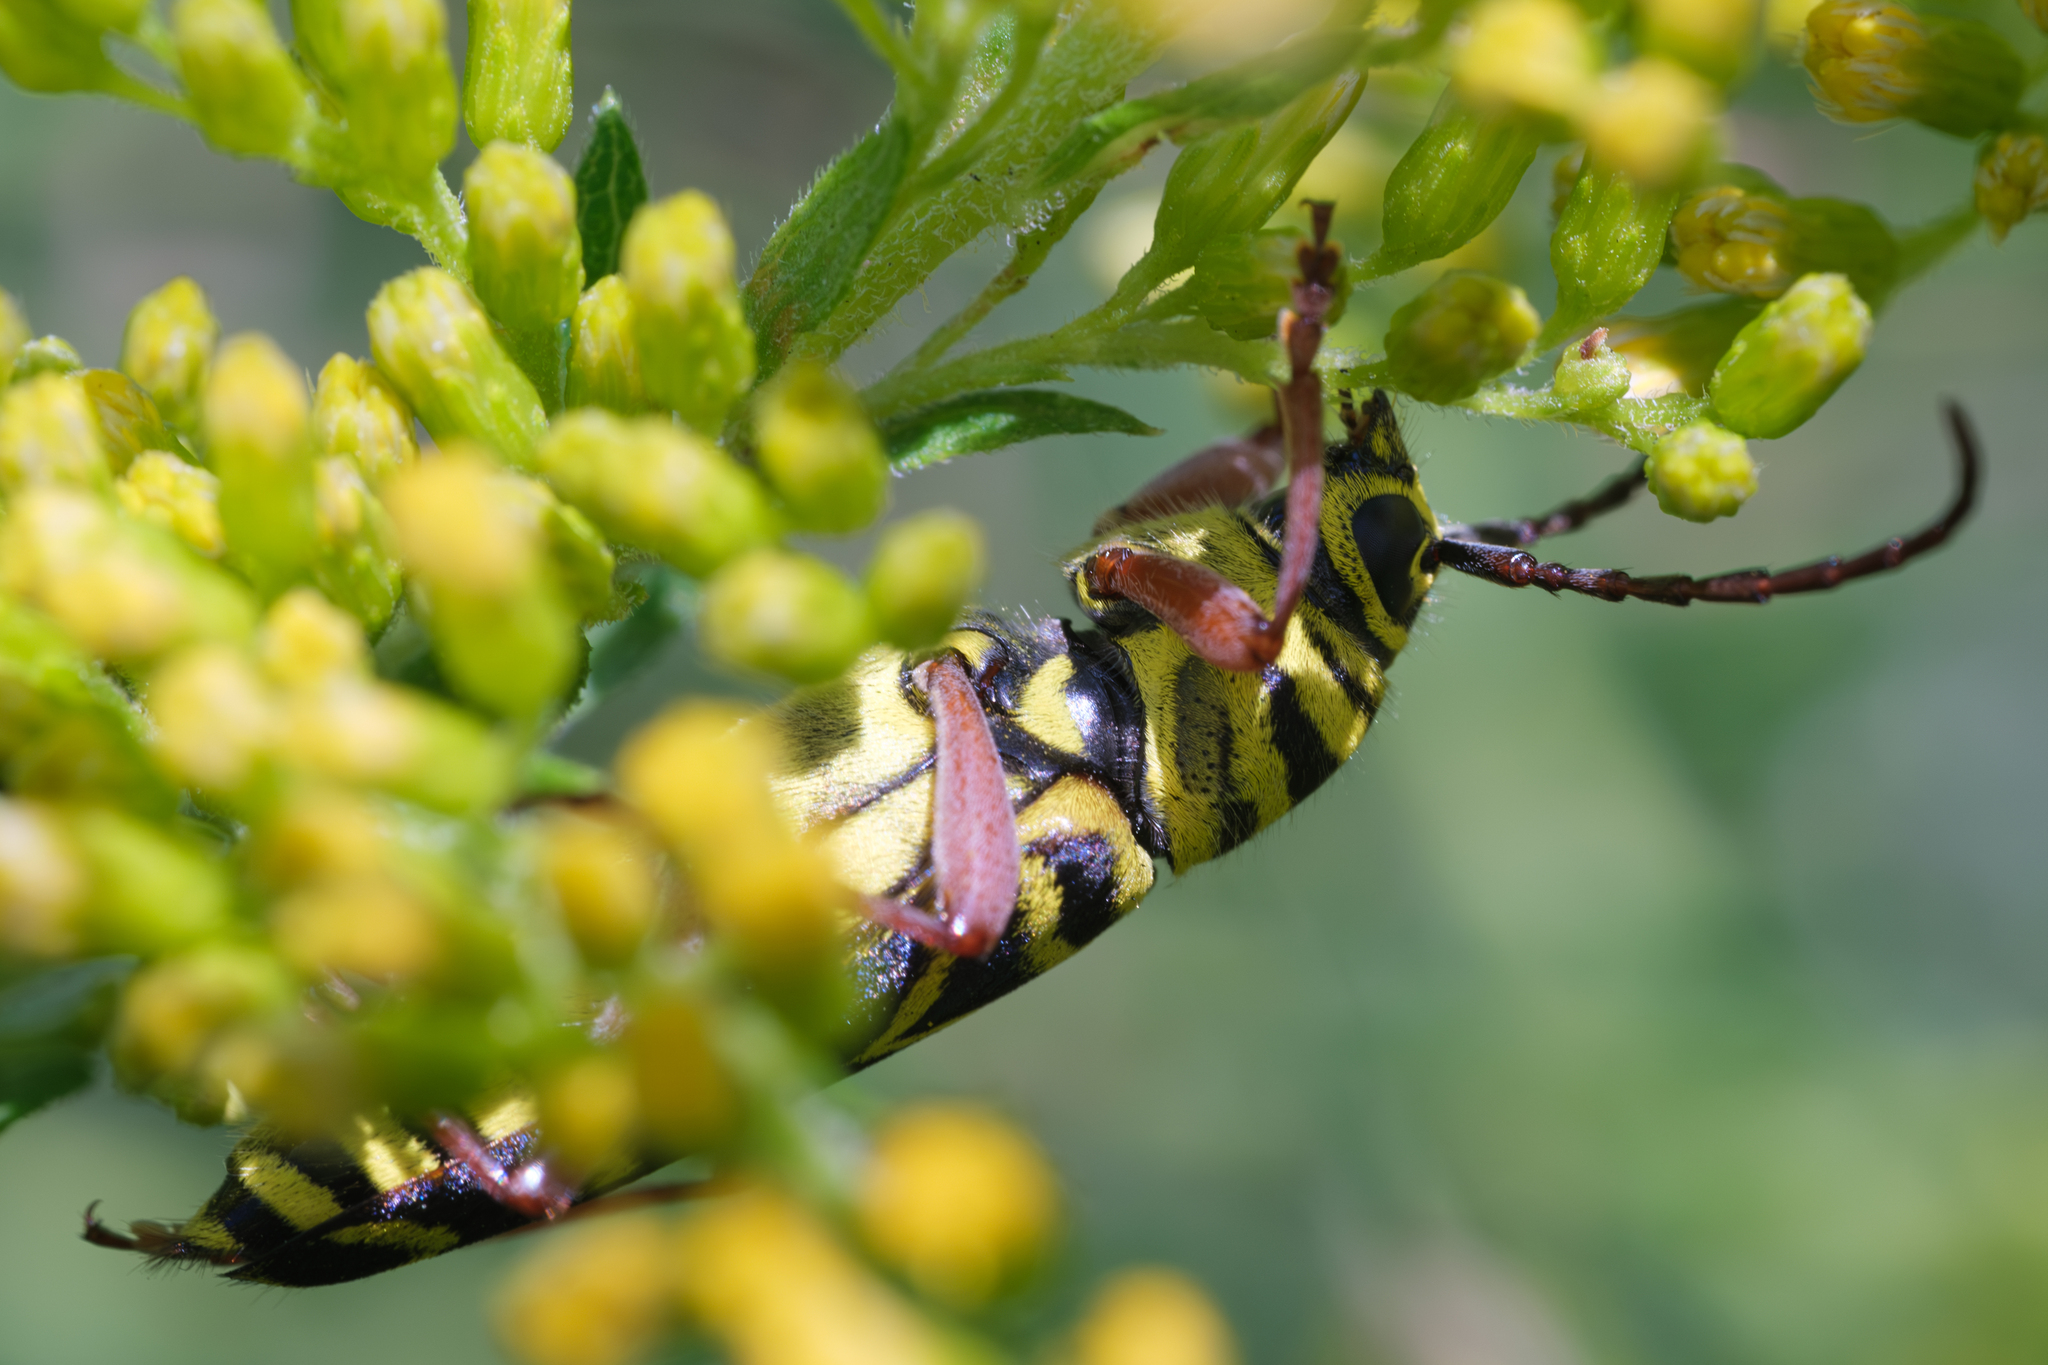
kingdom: Animalia
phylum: Arthropoda
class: Insecta
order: Coleoptera
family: Cerambycidae
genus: Megacyllene
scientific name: Megacyllene robiniae
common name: Locust borer
